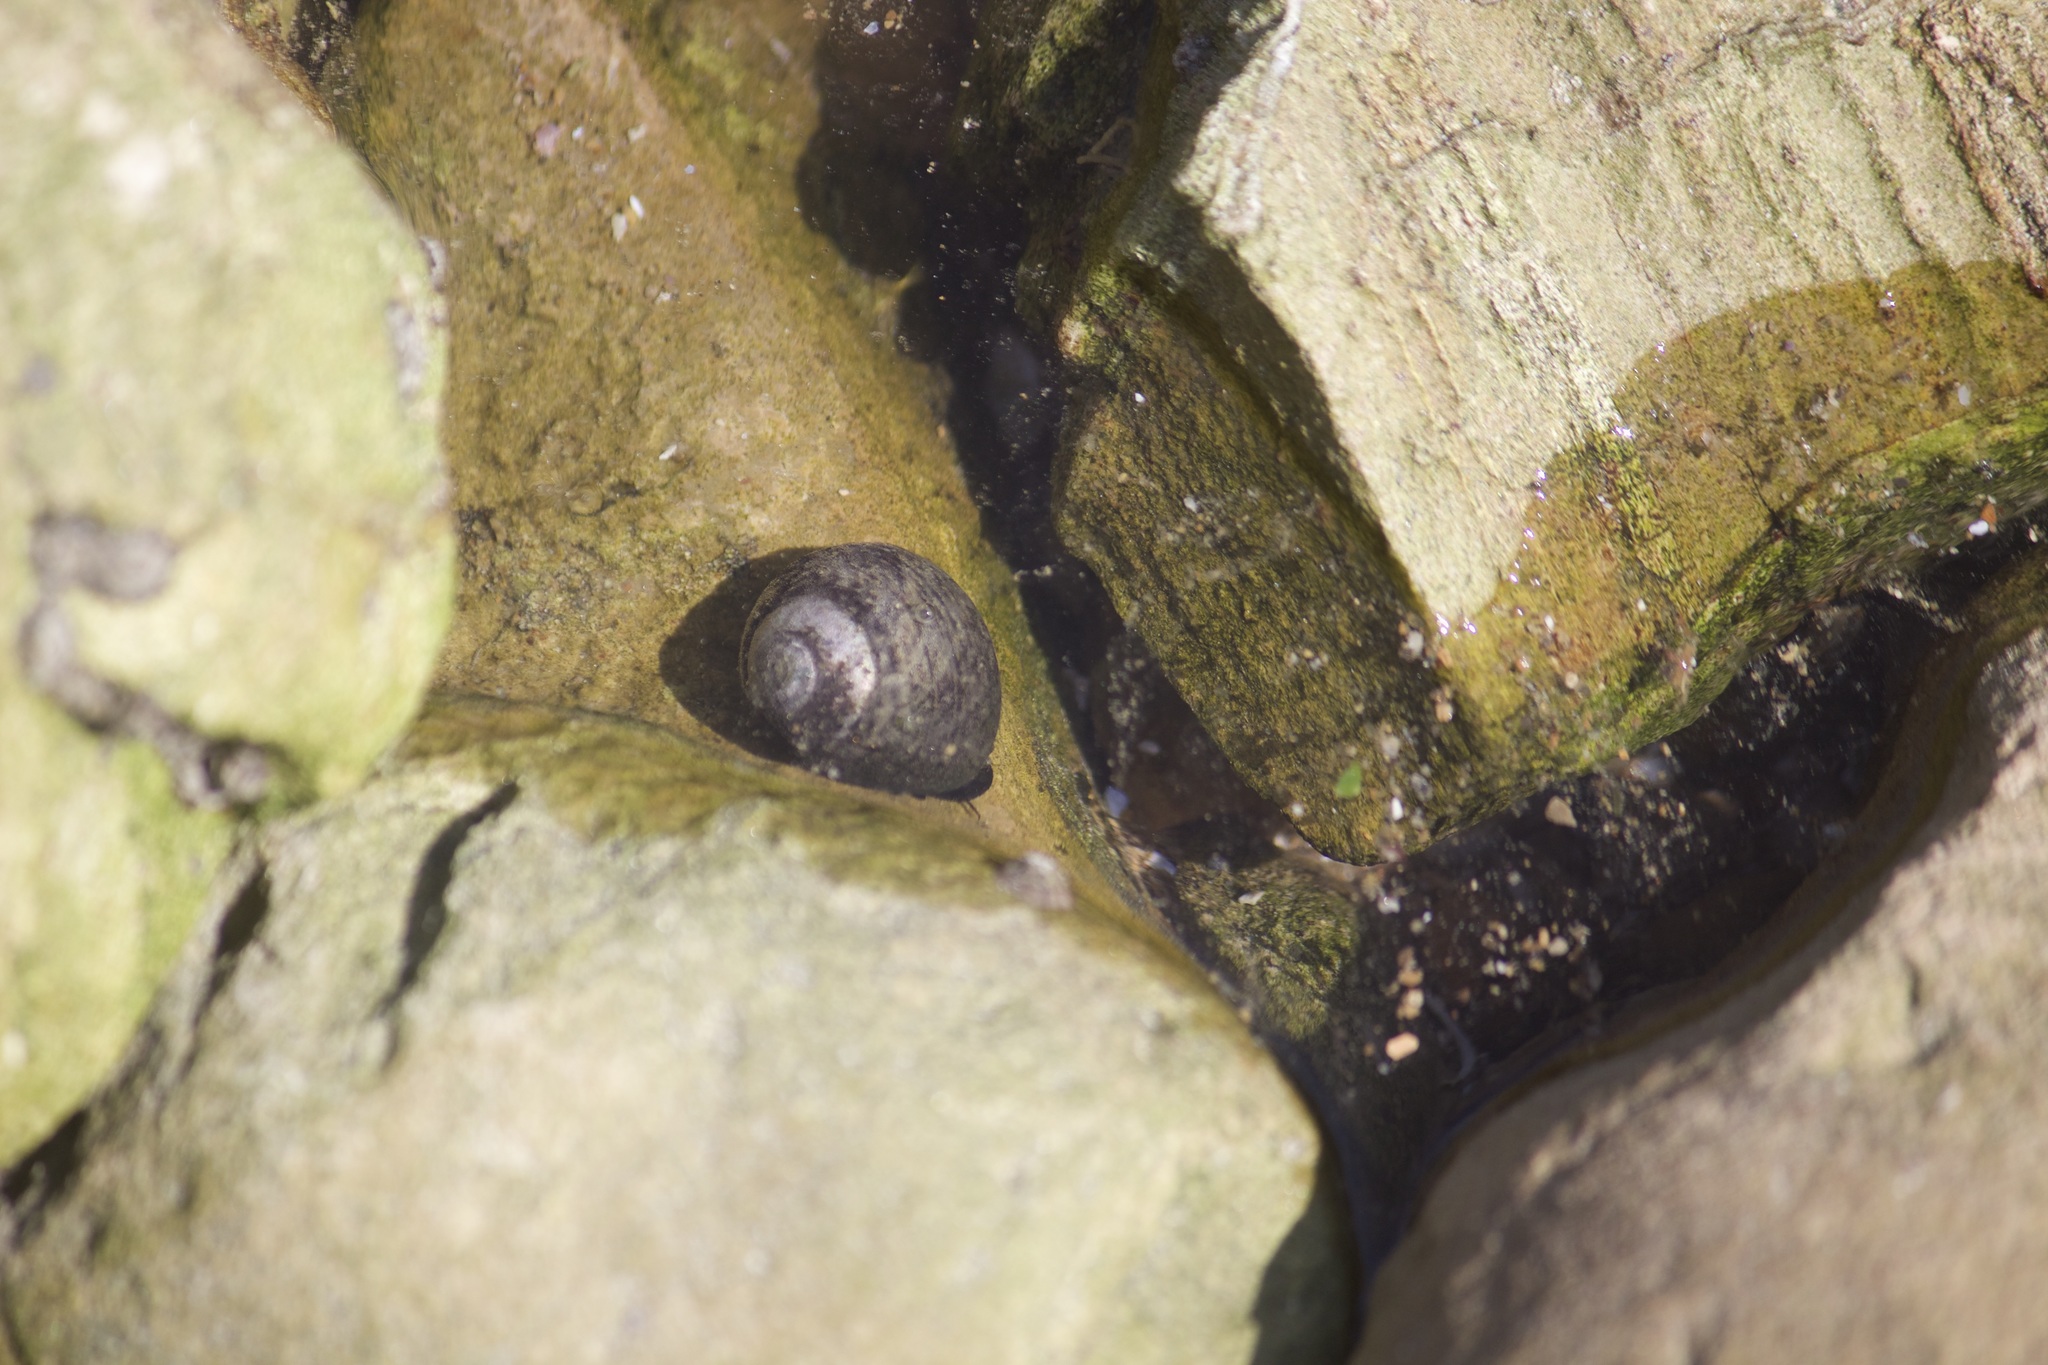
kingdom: Animalia
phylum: Mollusca
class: Gastropoda
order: Trochida
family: Tegulidae
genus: Tegula
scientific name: Tegula funebralis
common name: Black tegula
